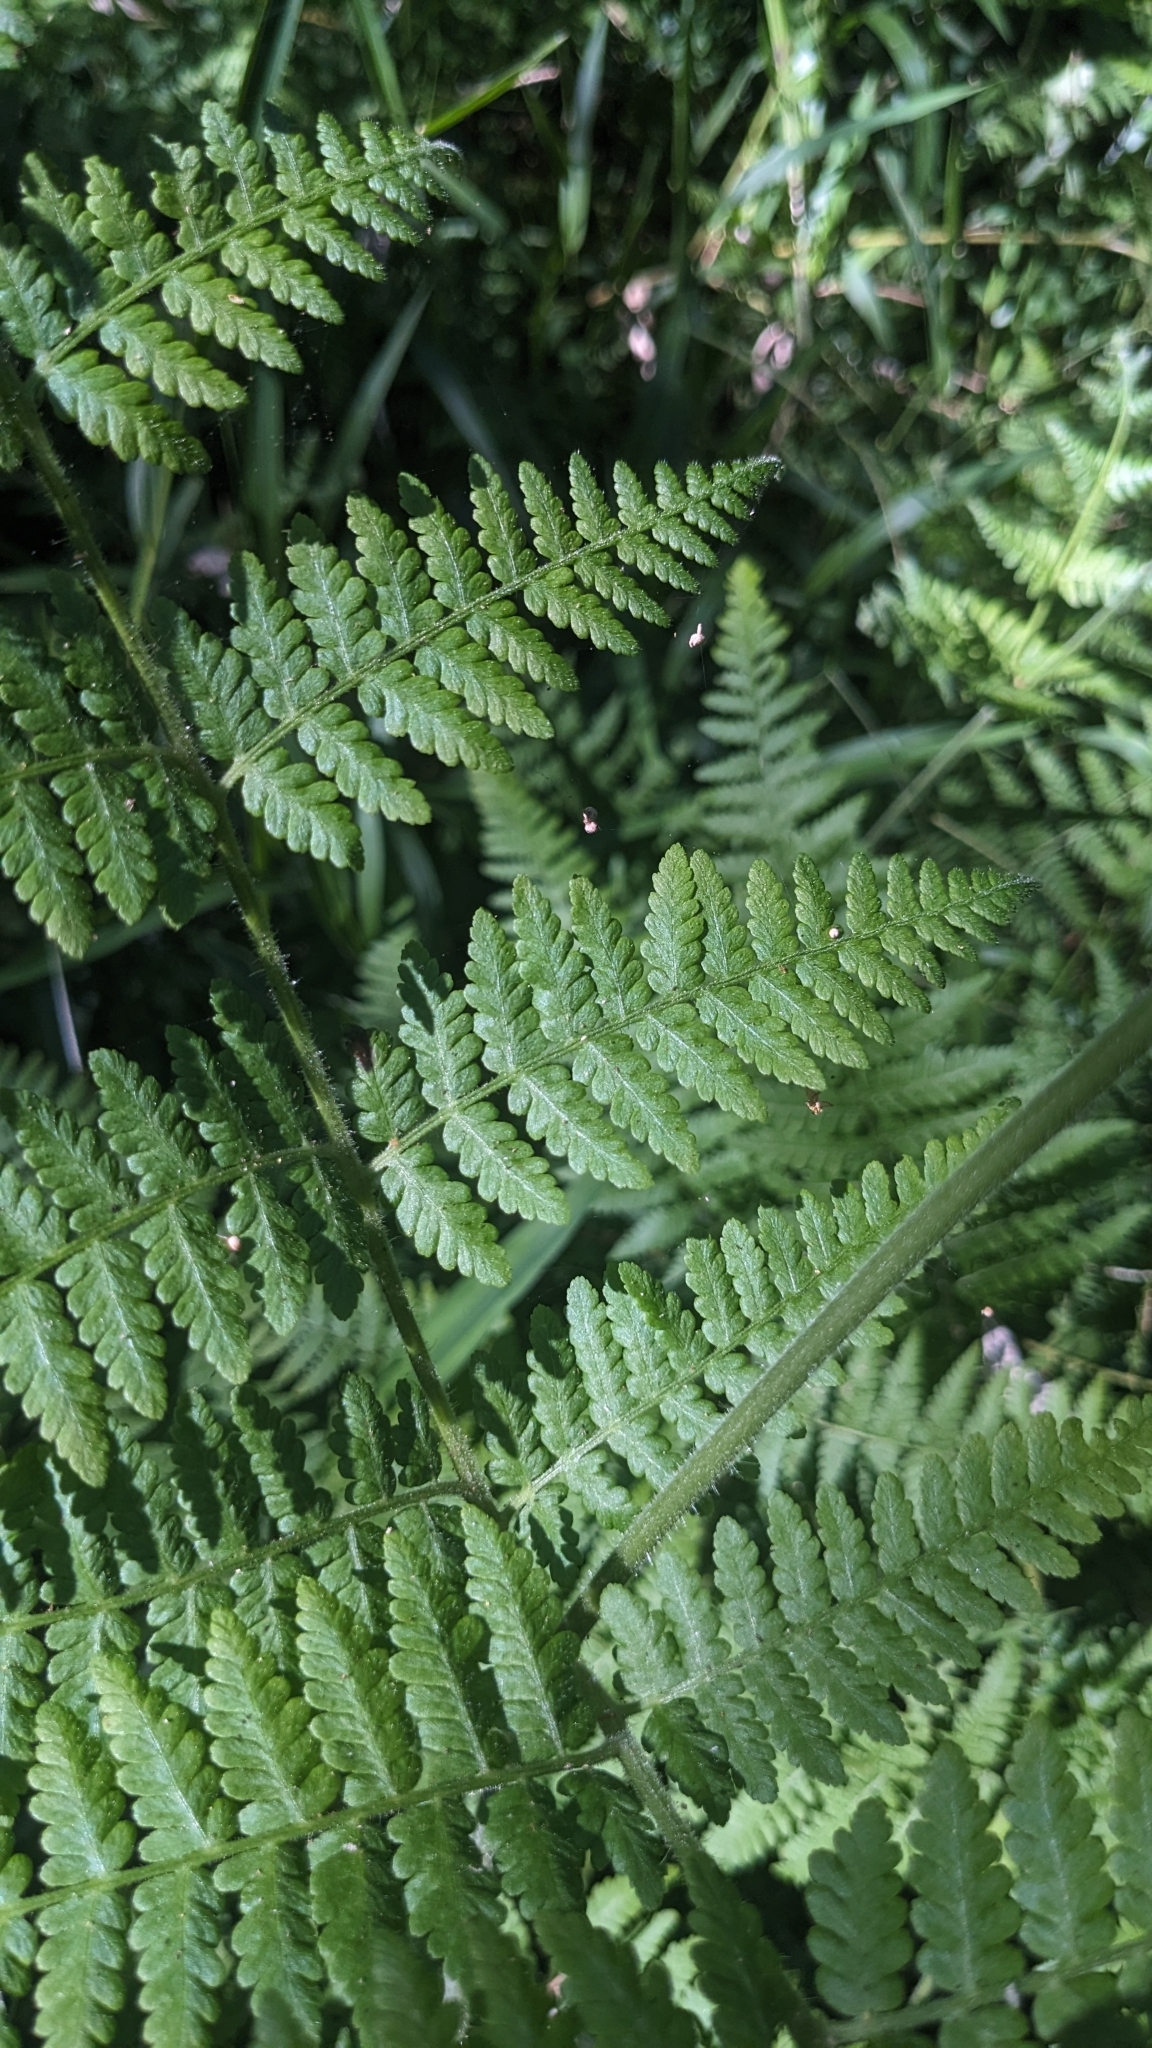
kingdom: Plantae
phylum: Tracheophyta
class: Polypodiopsida
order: Polypodiales
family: Dennstaedtiaceae
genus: Pteridium
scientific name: Pteridium aquilinum
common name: Bracken
